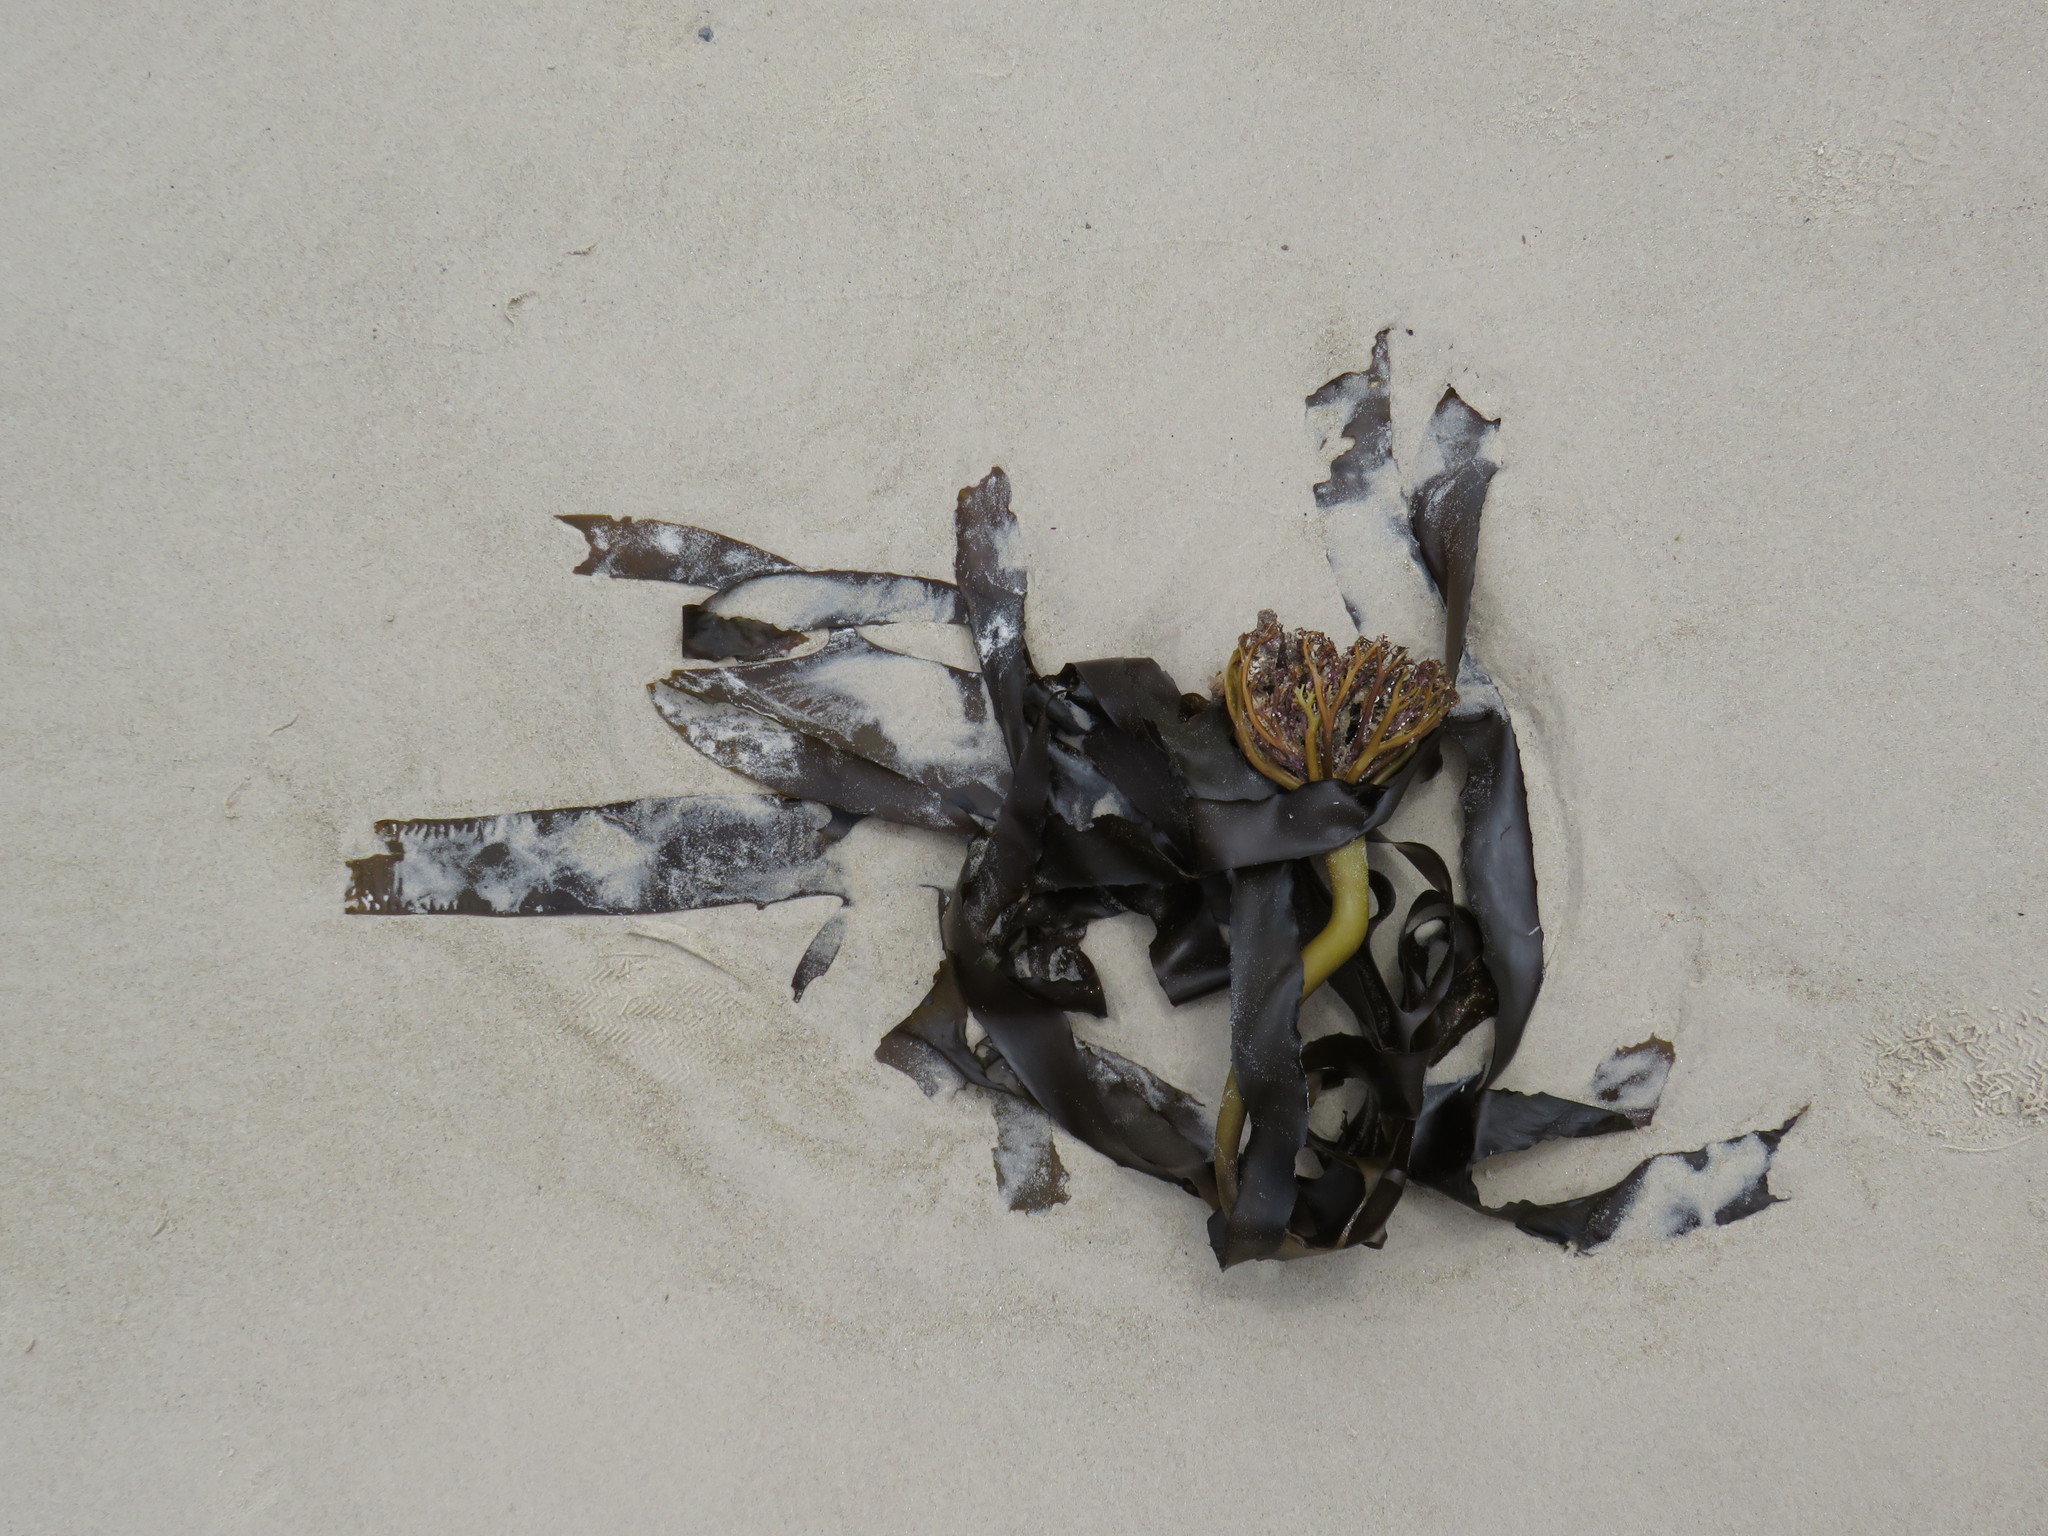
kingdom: Chromista
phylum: Ochrophyta
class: Phaeophyceae
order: Laminariales
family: Lessoniaceae
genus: Ecklonia
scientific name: Ecklonia
